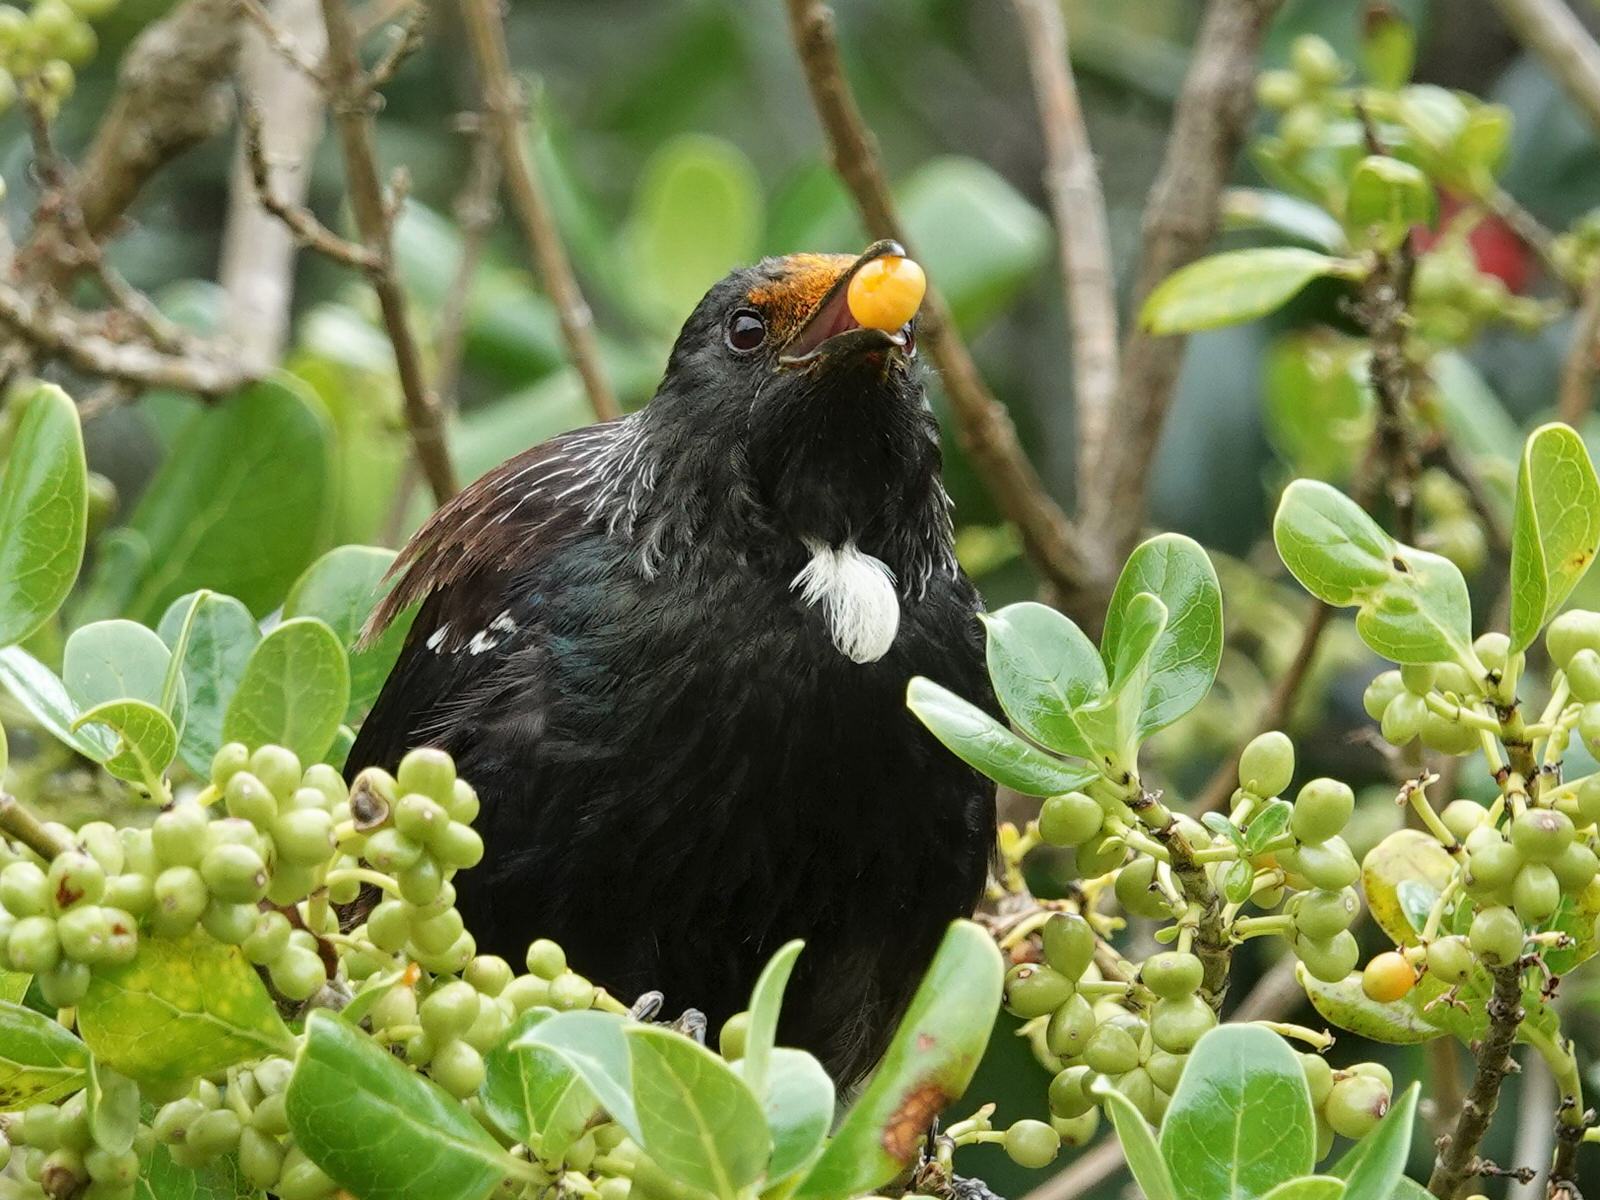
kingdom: Animalia
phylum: Chordata
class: Aves
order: Passeriformes
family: Meliphagidae
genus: Prosthemadera
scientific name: Prosthemadera novaeseelandiae
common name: Tui
